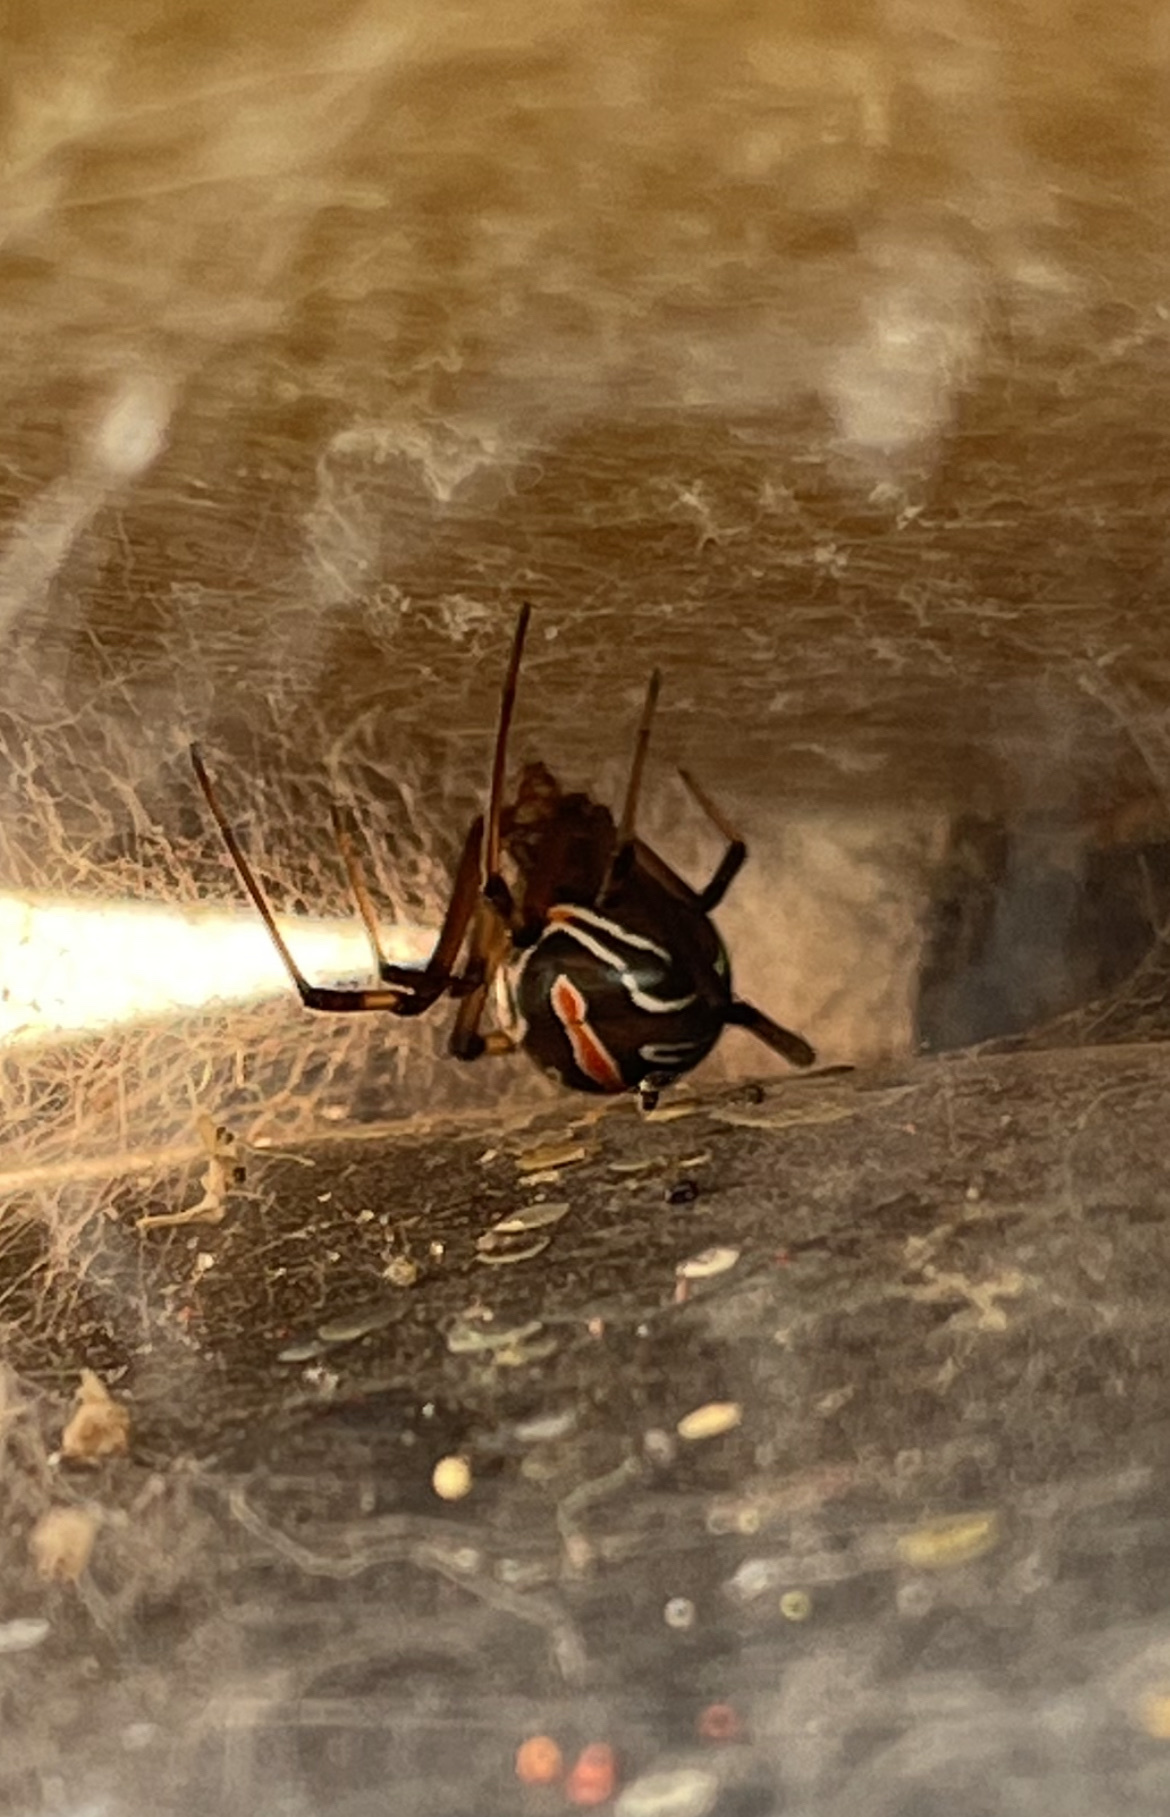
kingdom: Animalia
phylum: Arthropoda
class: Arachnida
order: Araneae
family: Theridiidae
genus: Latrodectus
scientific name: Latrodectus hesperus
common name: Western black widow
